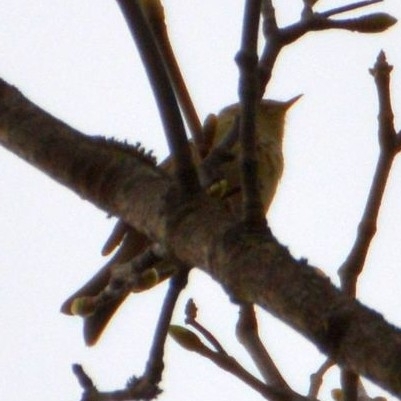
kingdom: Animalia
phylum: Chordata
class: Aves
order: Passeriformes
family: Phylloscopidae
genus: Phylloscopus
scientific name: Phylloscopus
